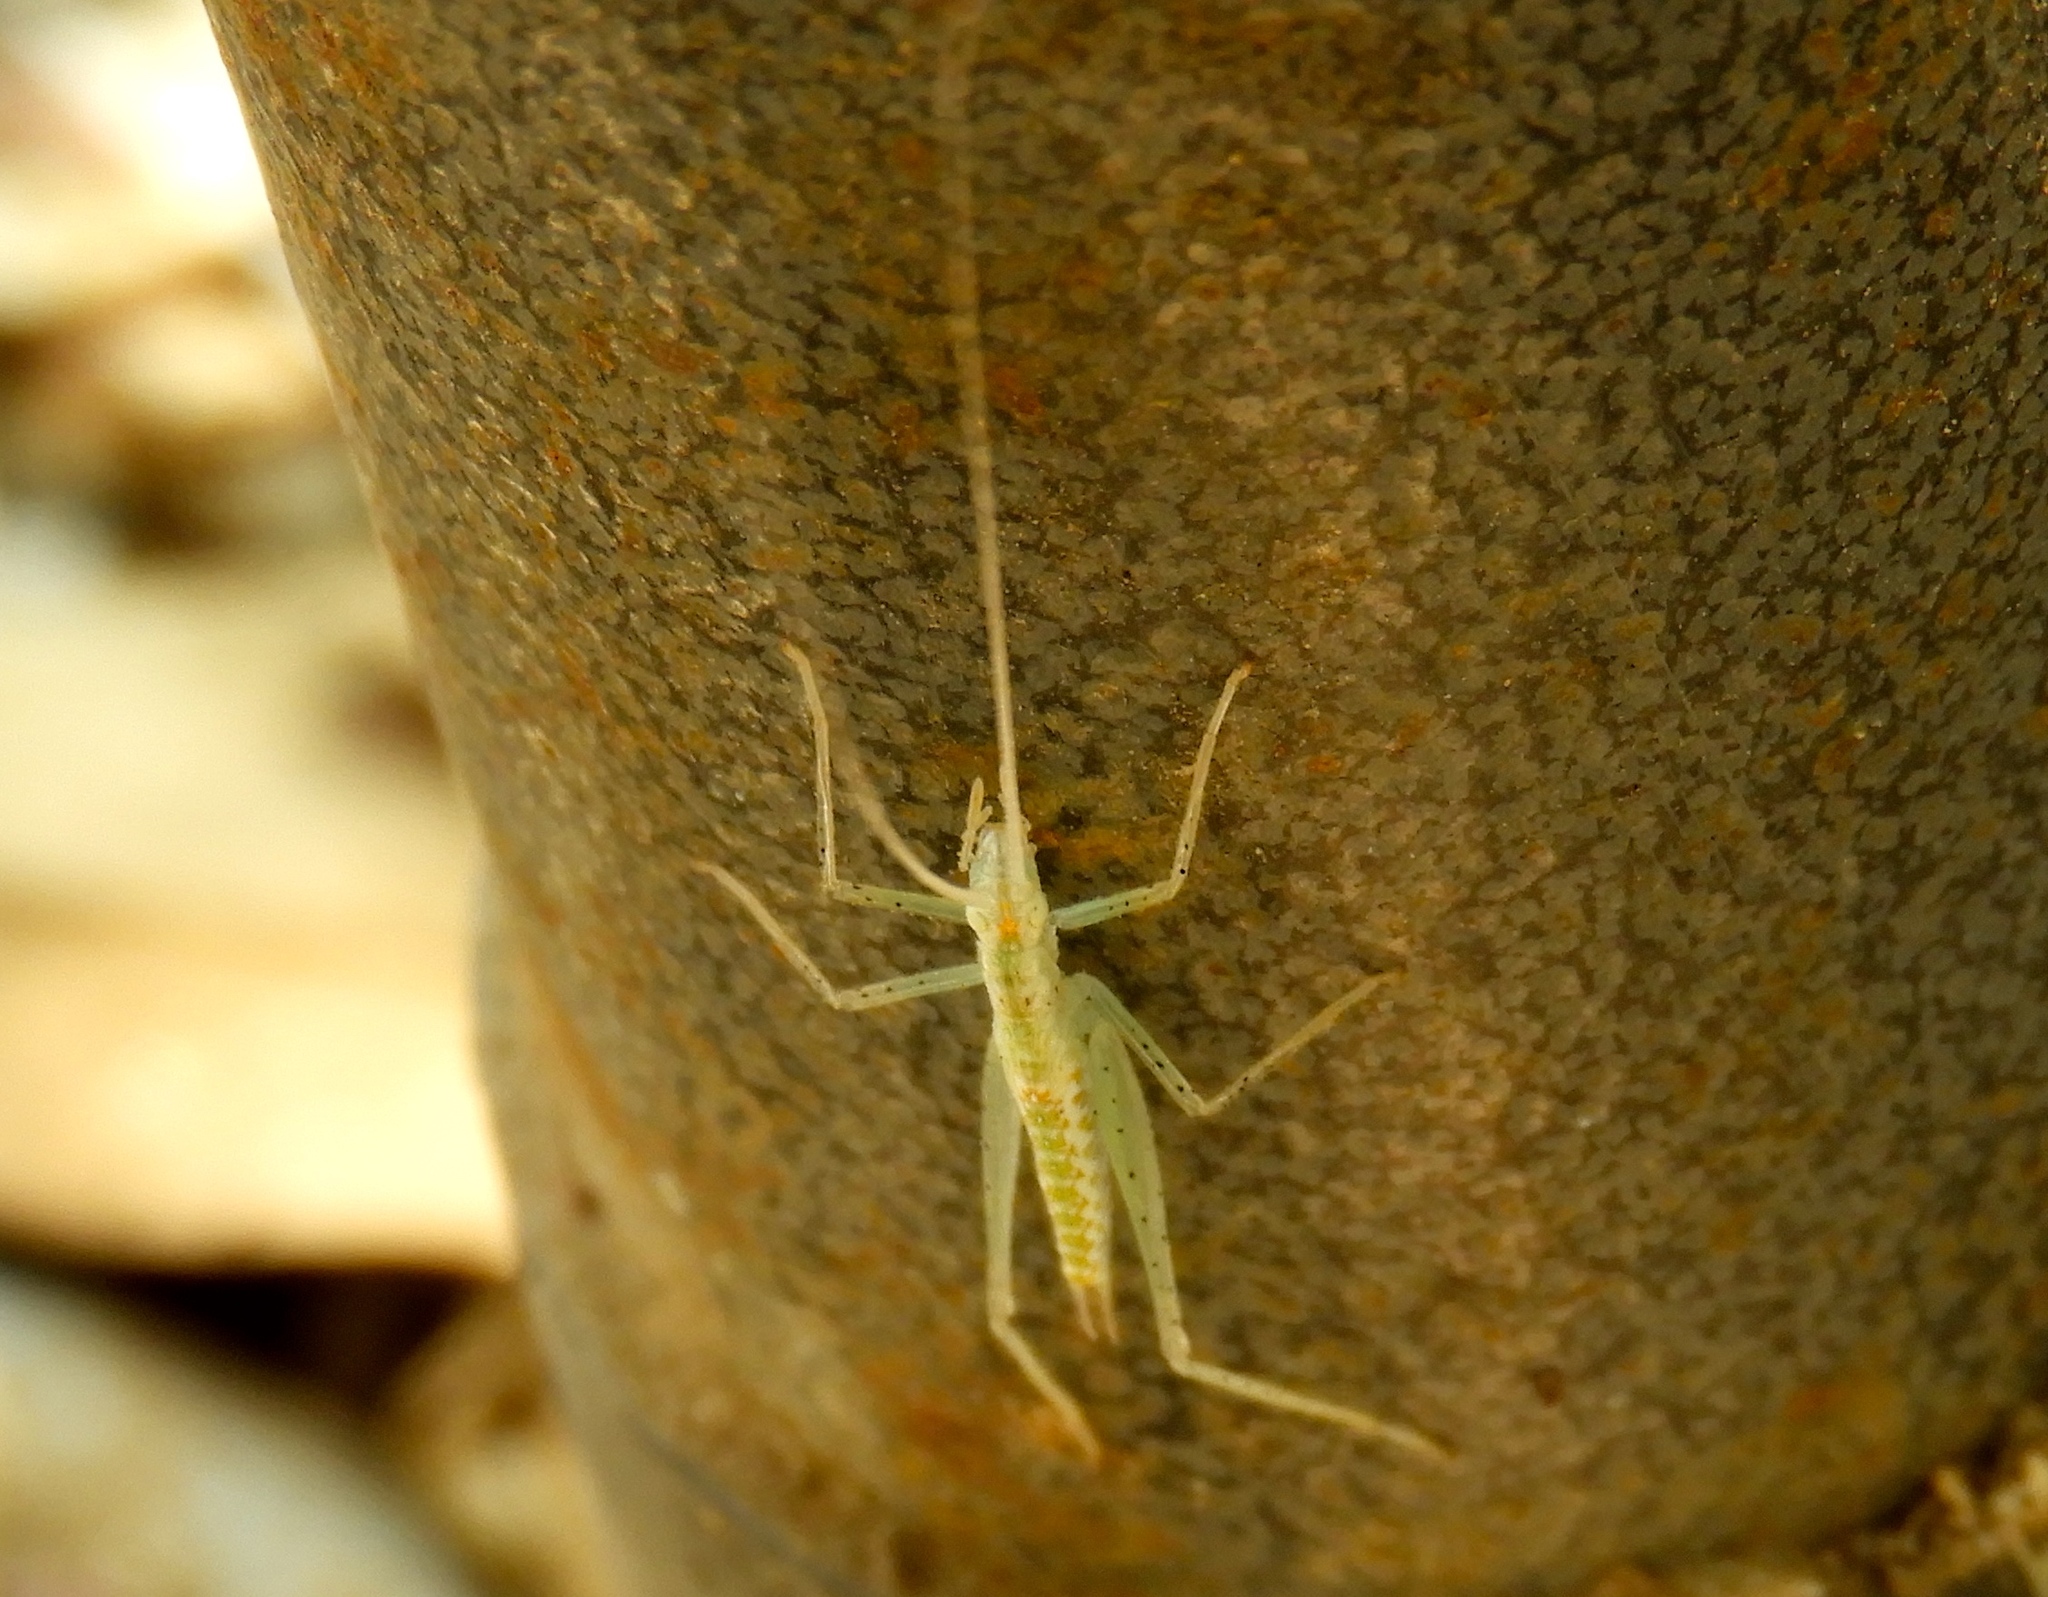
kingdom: Animalia
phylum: Arthropoda
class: Insecta
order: Orthoptera
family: Gryllidae
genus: Oecanthus
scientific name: Oecanthus
